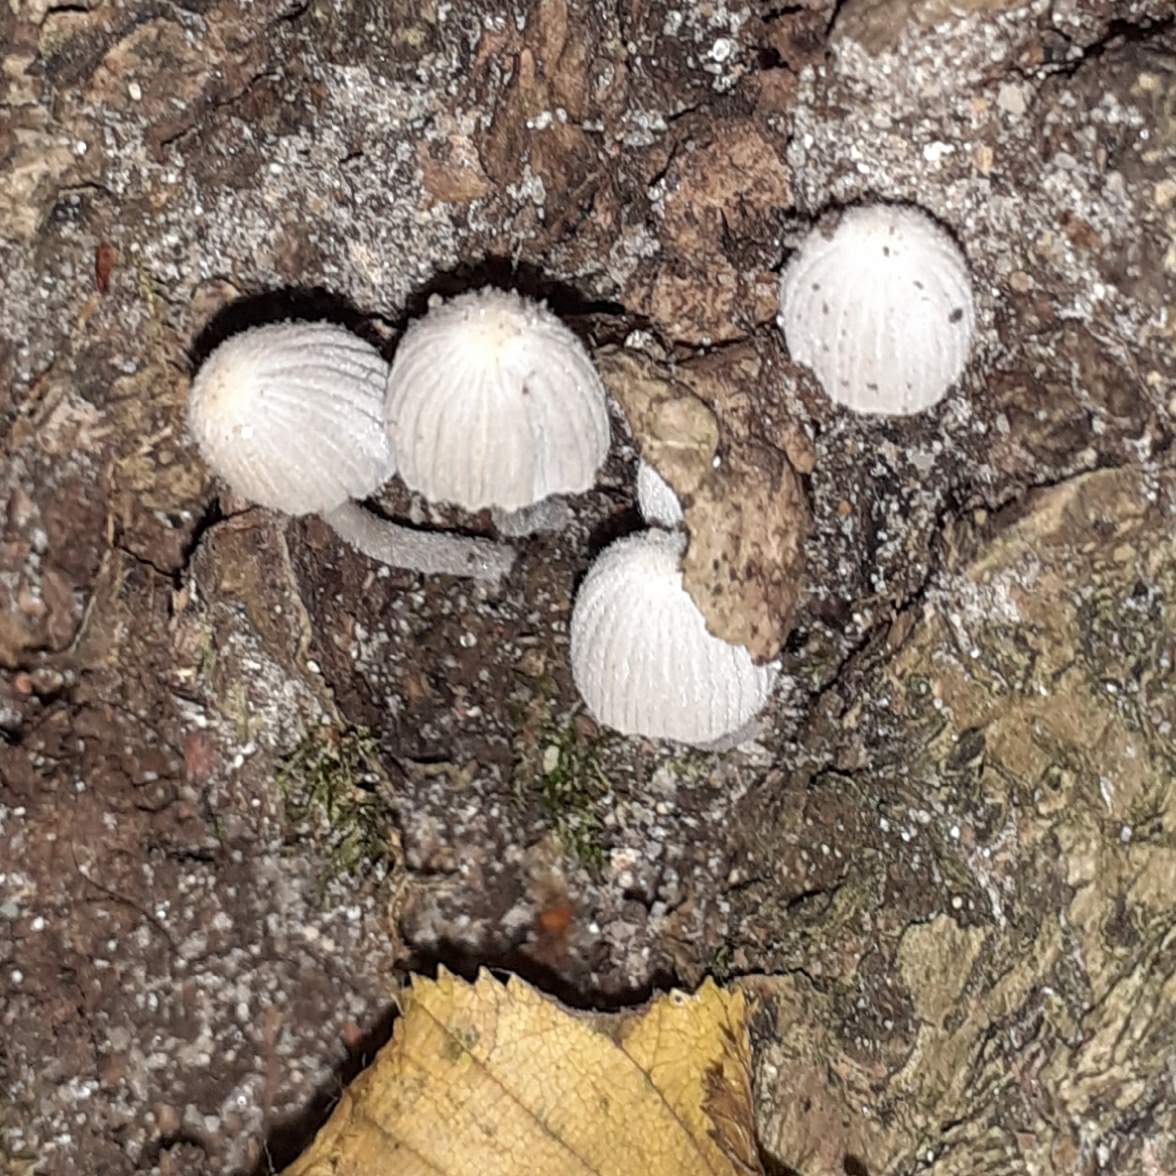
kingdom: Fungi
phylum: Basidiomycota
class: Agaricomycetes
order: Agaricales
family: Psathyrellaceae
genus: Coprinellus
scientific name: Coprinellus disseminatus
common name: Fairies' bonnets
